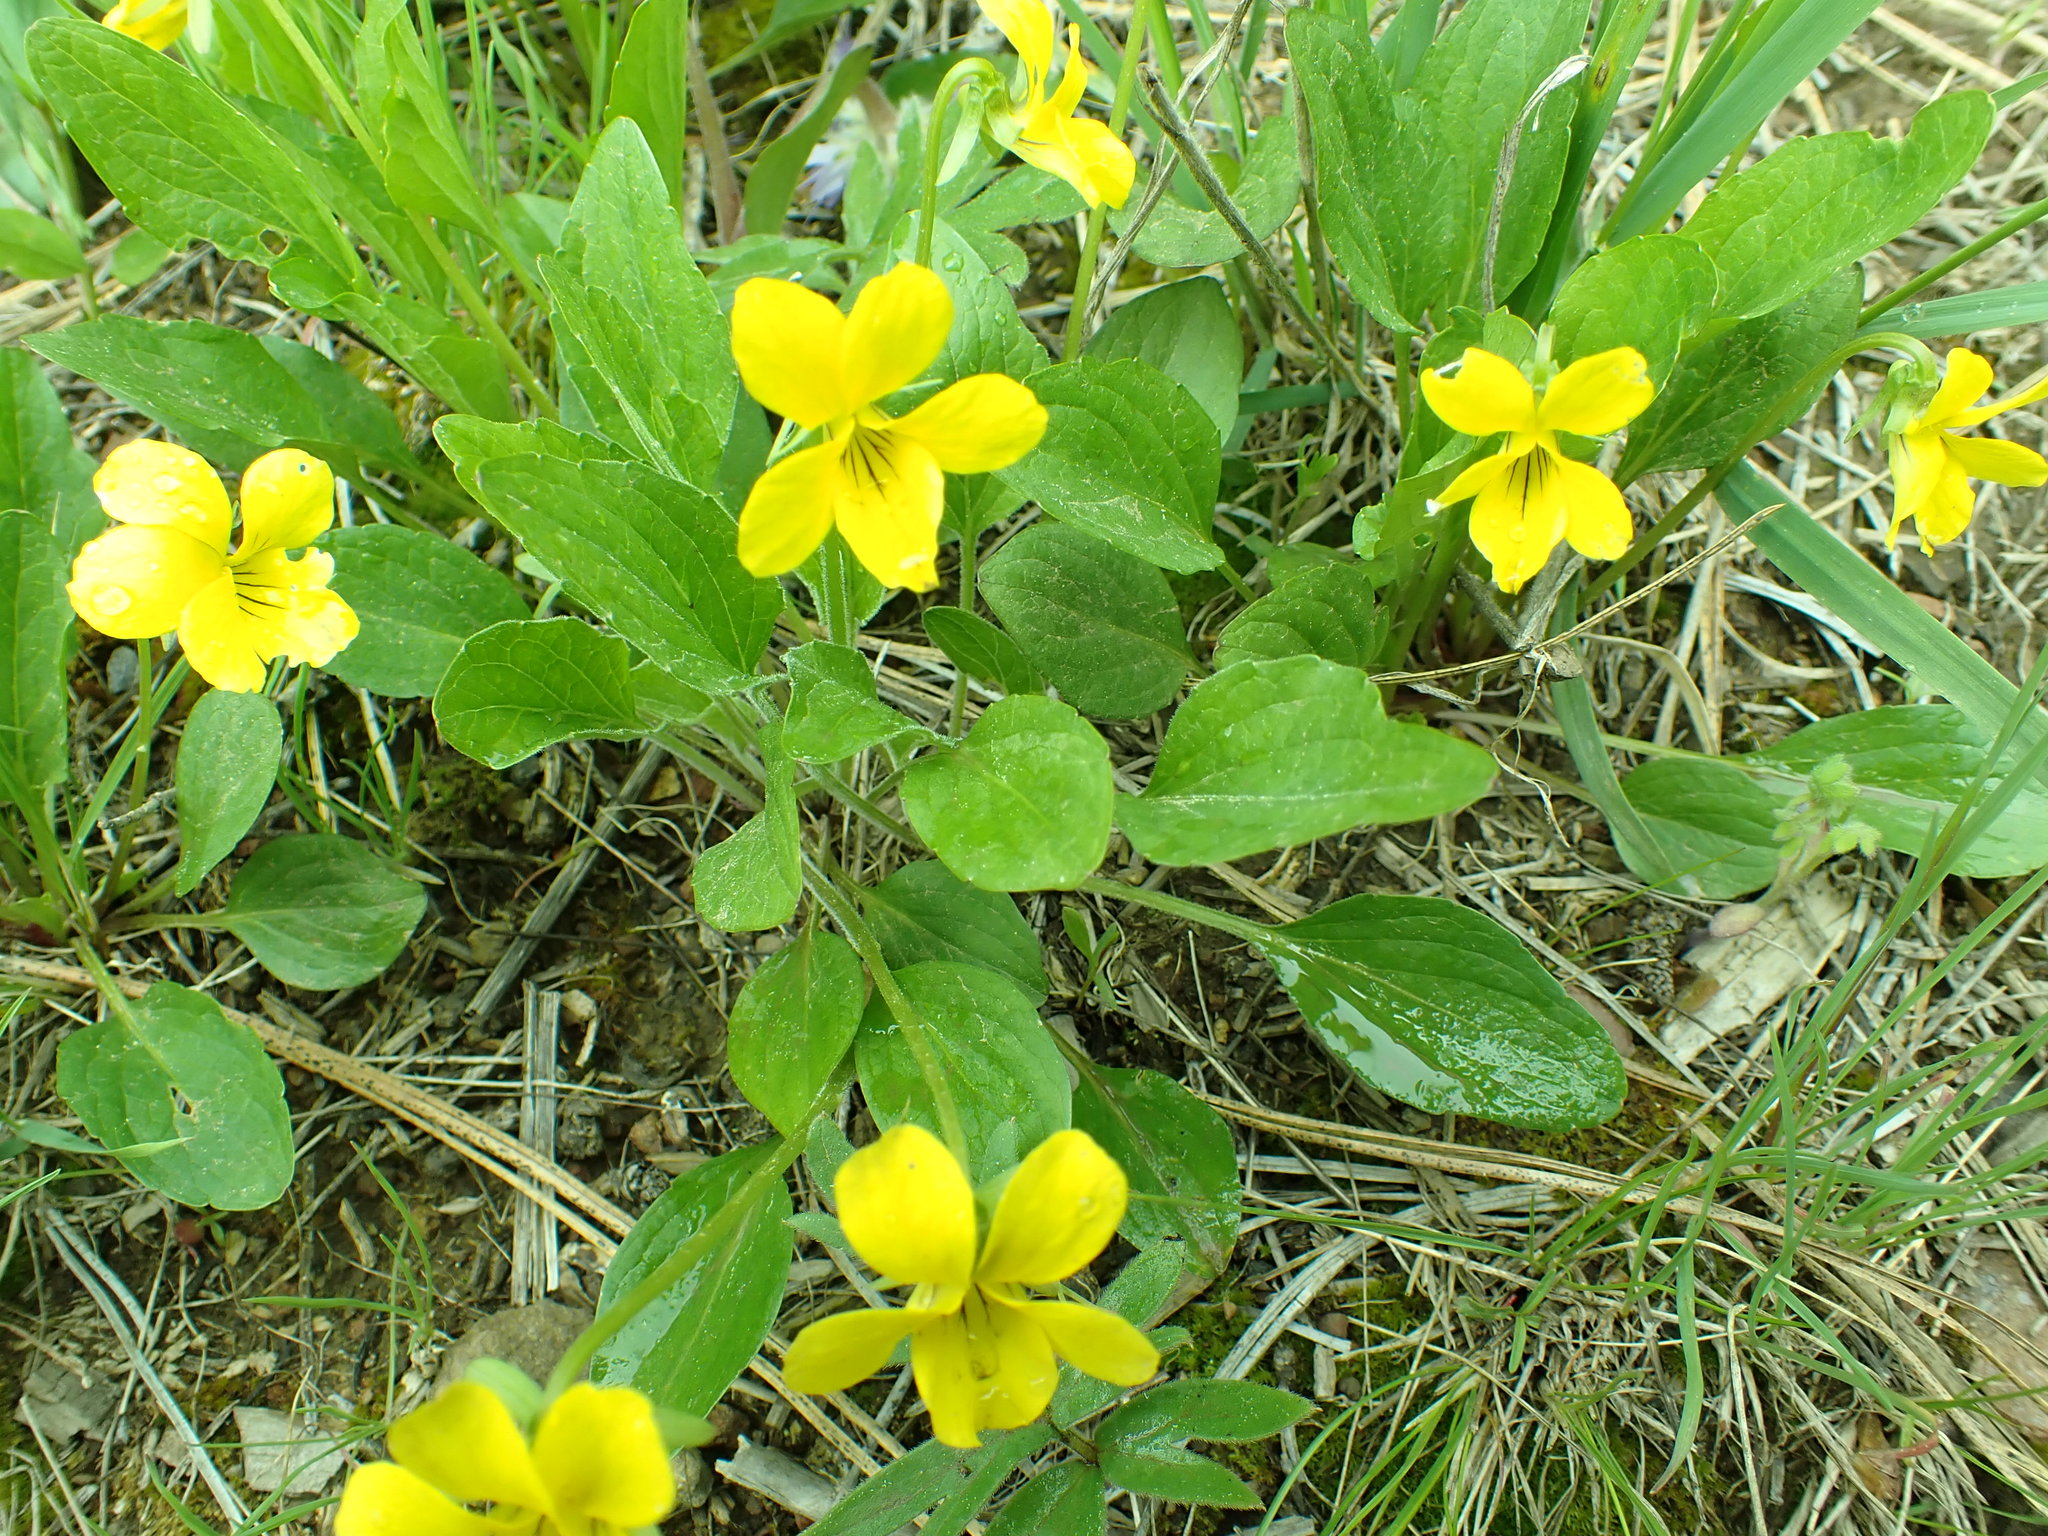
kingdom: Plantae
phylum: Tracheophyta
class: Magnoliopsida
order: Malpighiales
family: Violaceae
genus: Viola
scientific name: Viola nuttallii
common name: Yellow prairie violet
